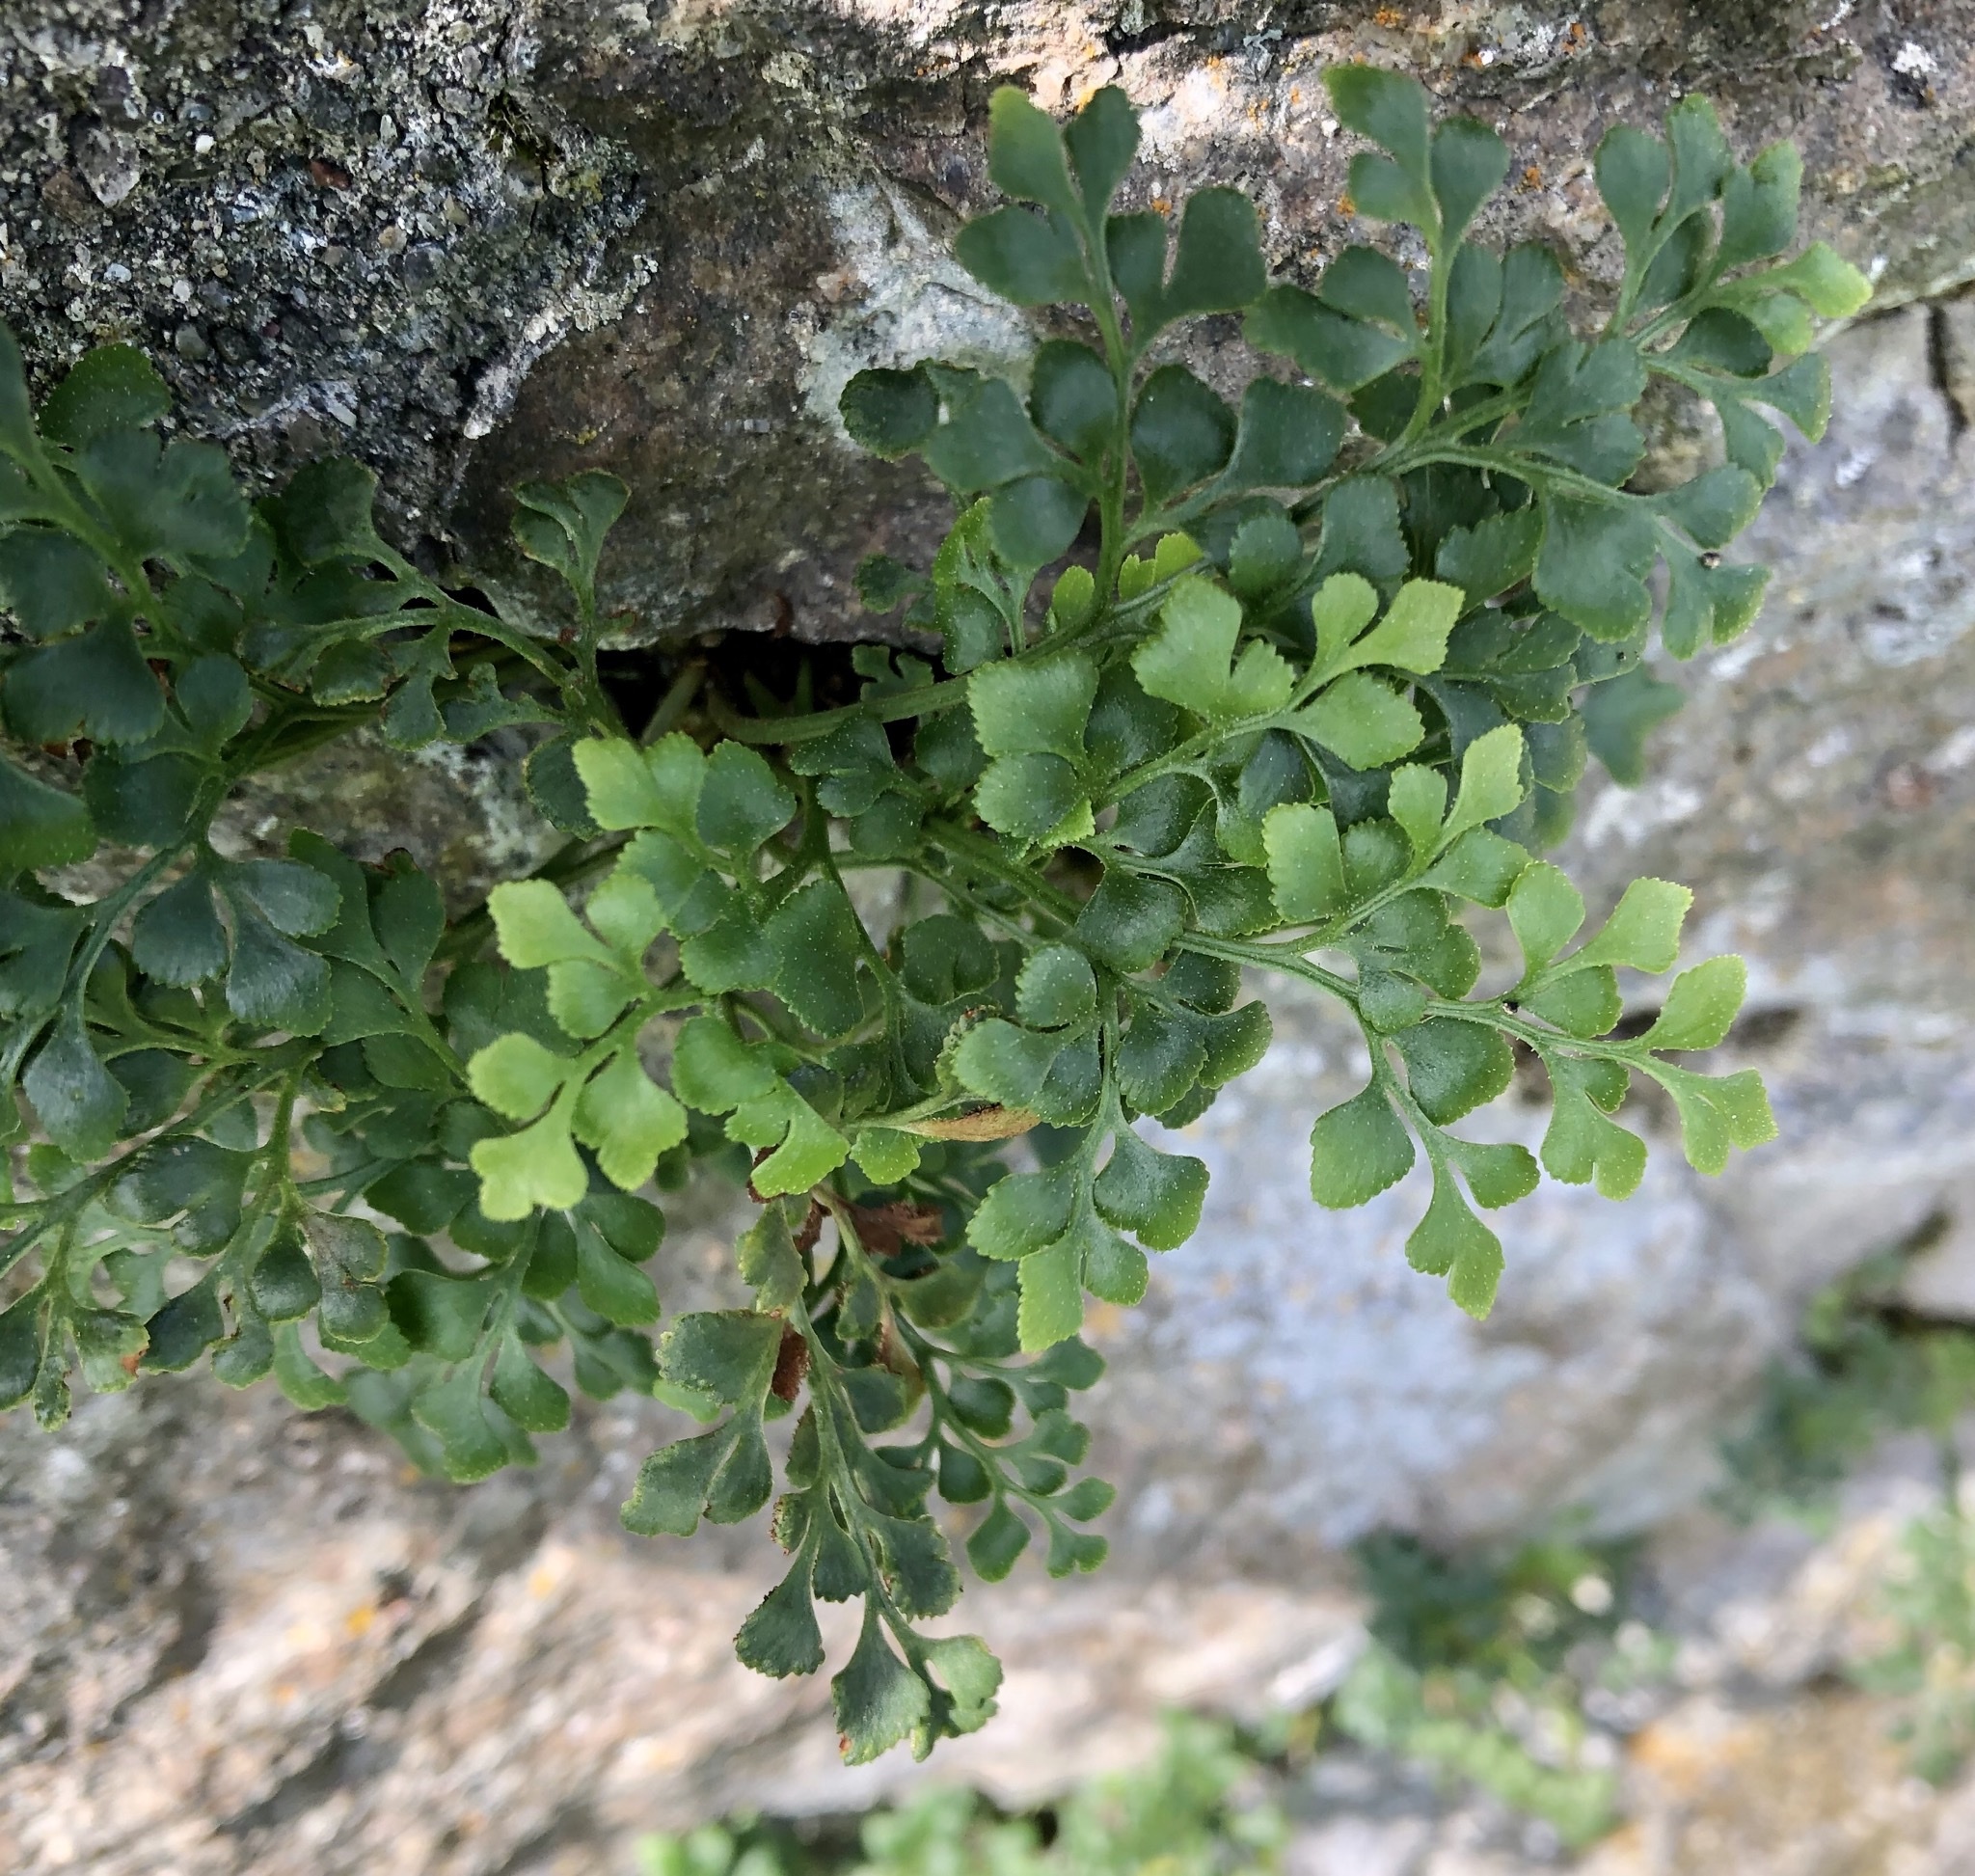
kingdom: Plantae
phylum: Tracheophyta
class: Polypodiopsida
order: Polypodiales
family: Aspleniaceae
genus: Asplenium
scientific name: Asplenium ruta-muraria
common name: Wall-rue
